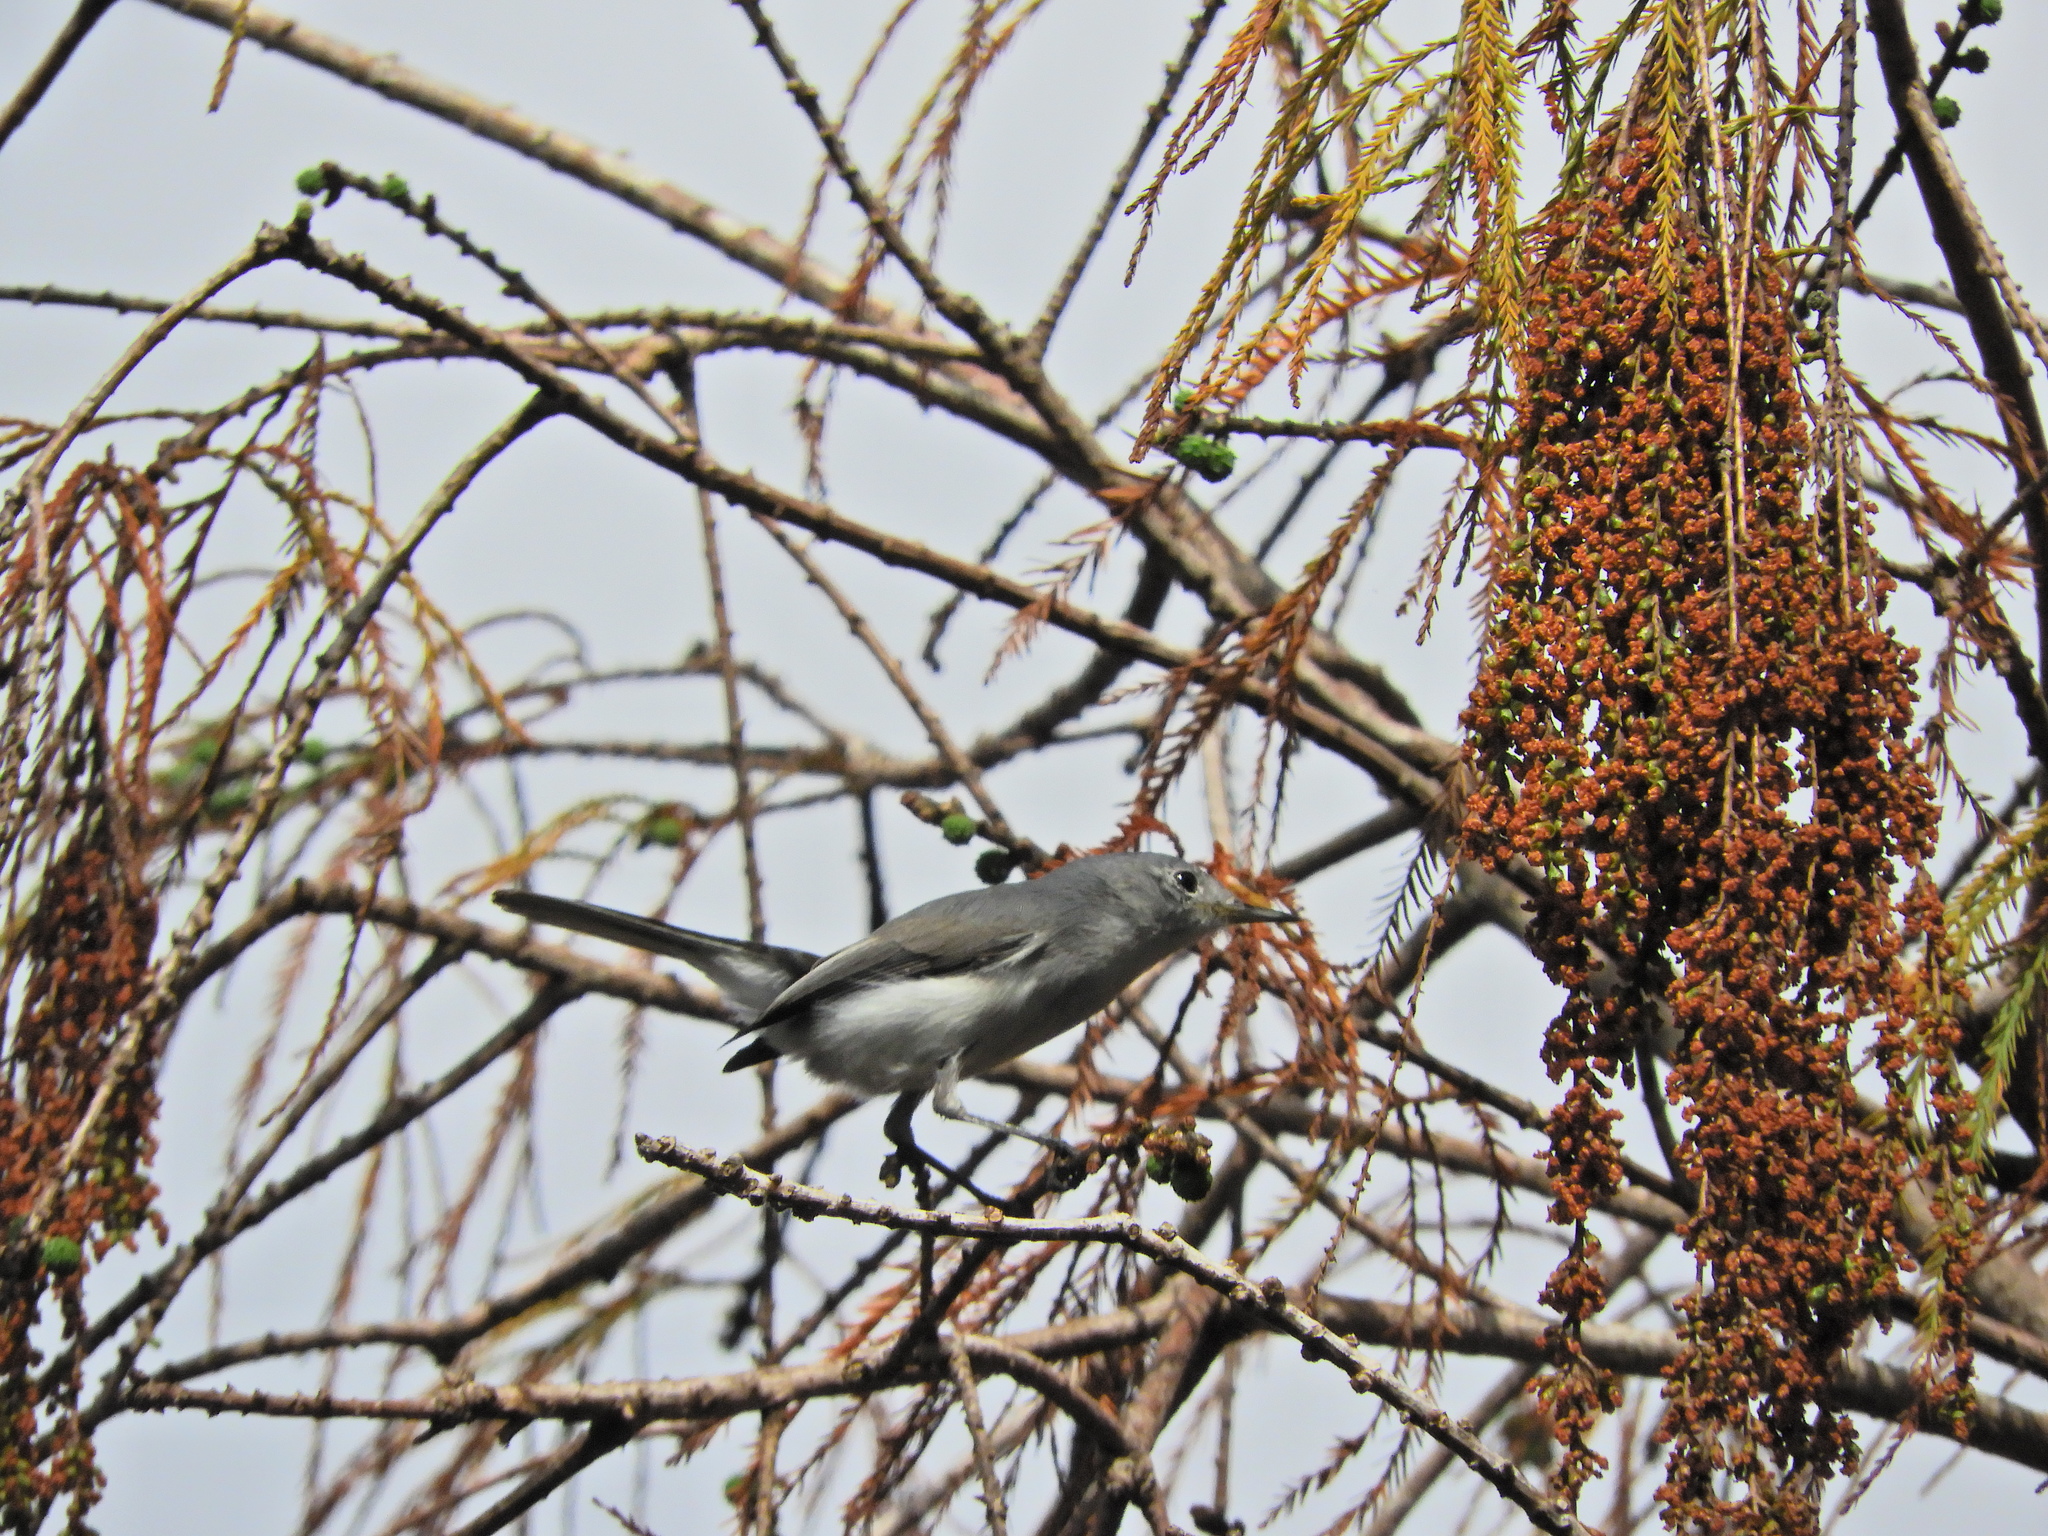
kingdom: Animalia
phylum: Chordata
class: Aves
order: Passeriformes
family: Polioptilidae
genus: Polioptila
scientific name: Polioptila caerulea
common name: Blue-gray gnatcatcher
